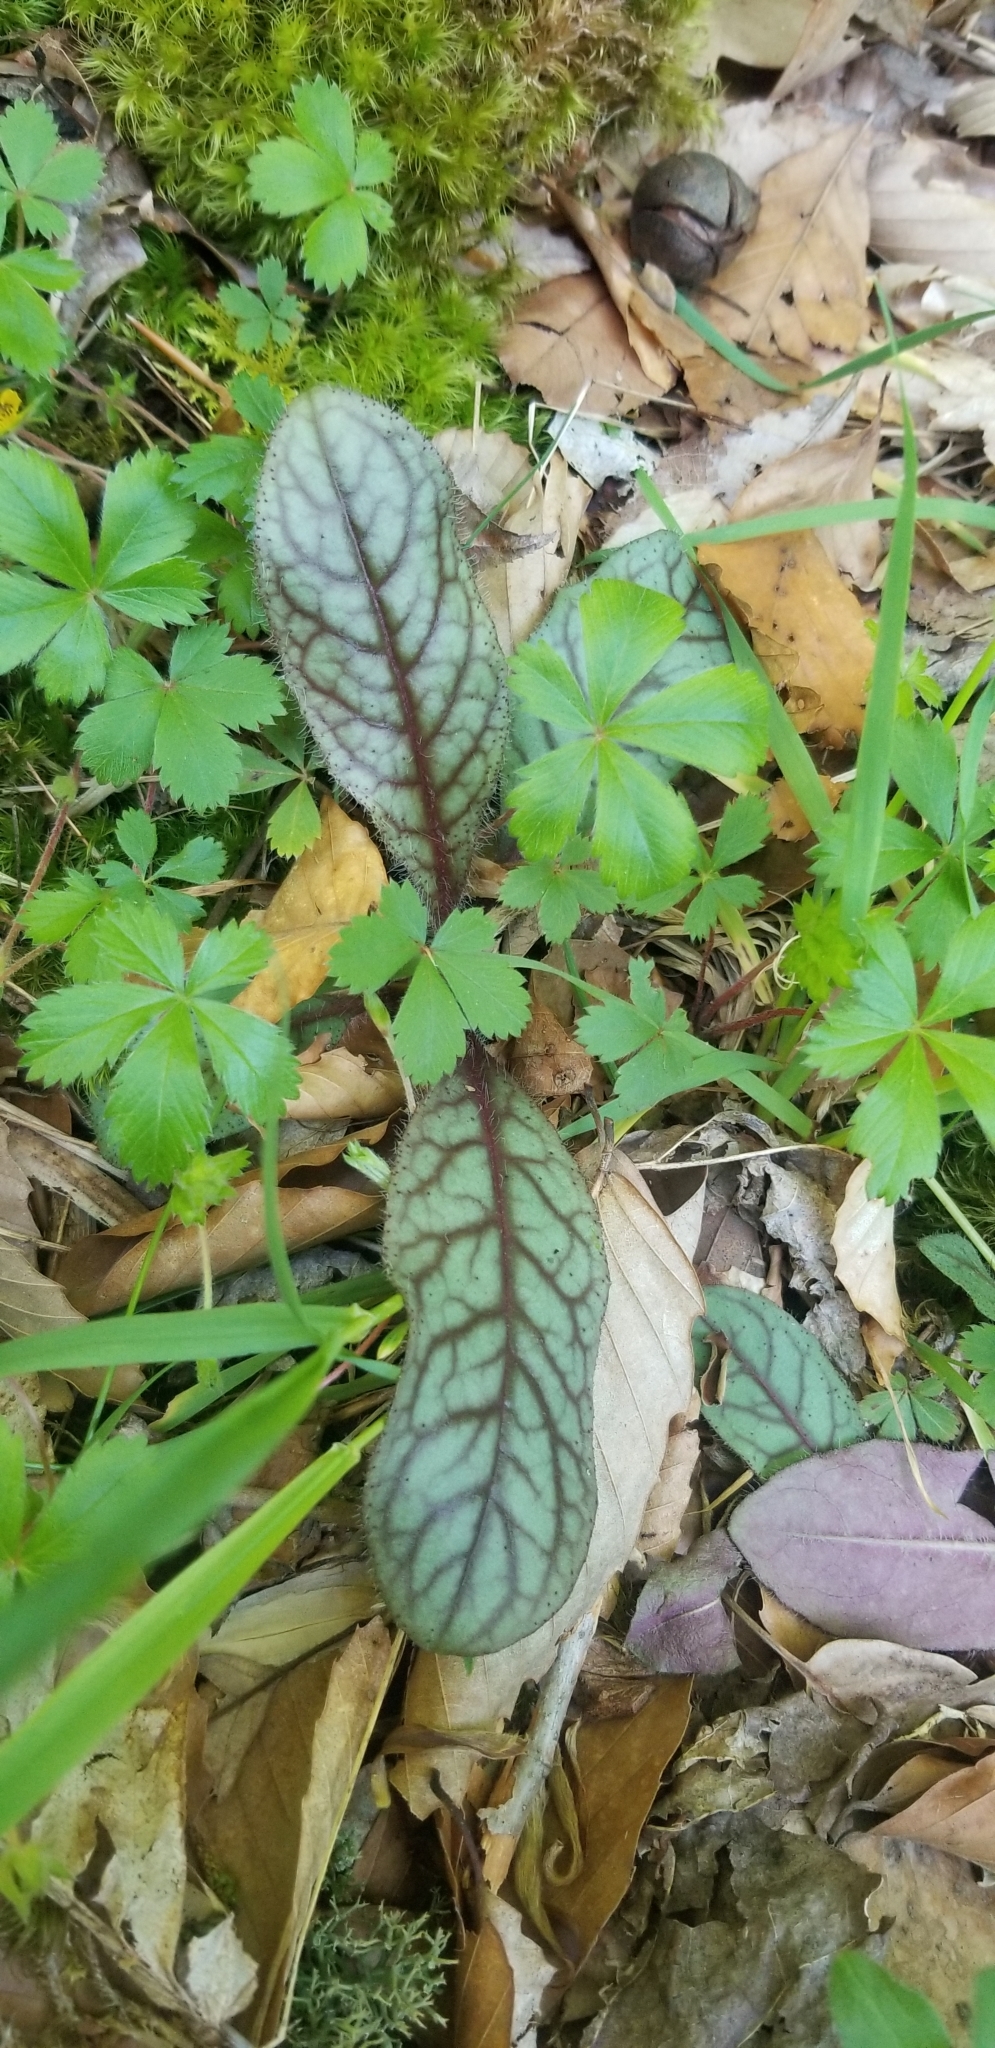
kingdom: Plantae
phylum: Tracheophyta
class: Magnoliopsida
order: Asterales
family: Asteraceae
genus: Hieracium
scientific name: Hieracium venosum
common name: Rattlesnake hawkweed
